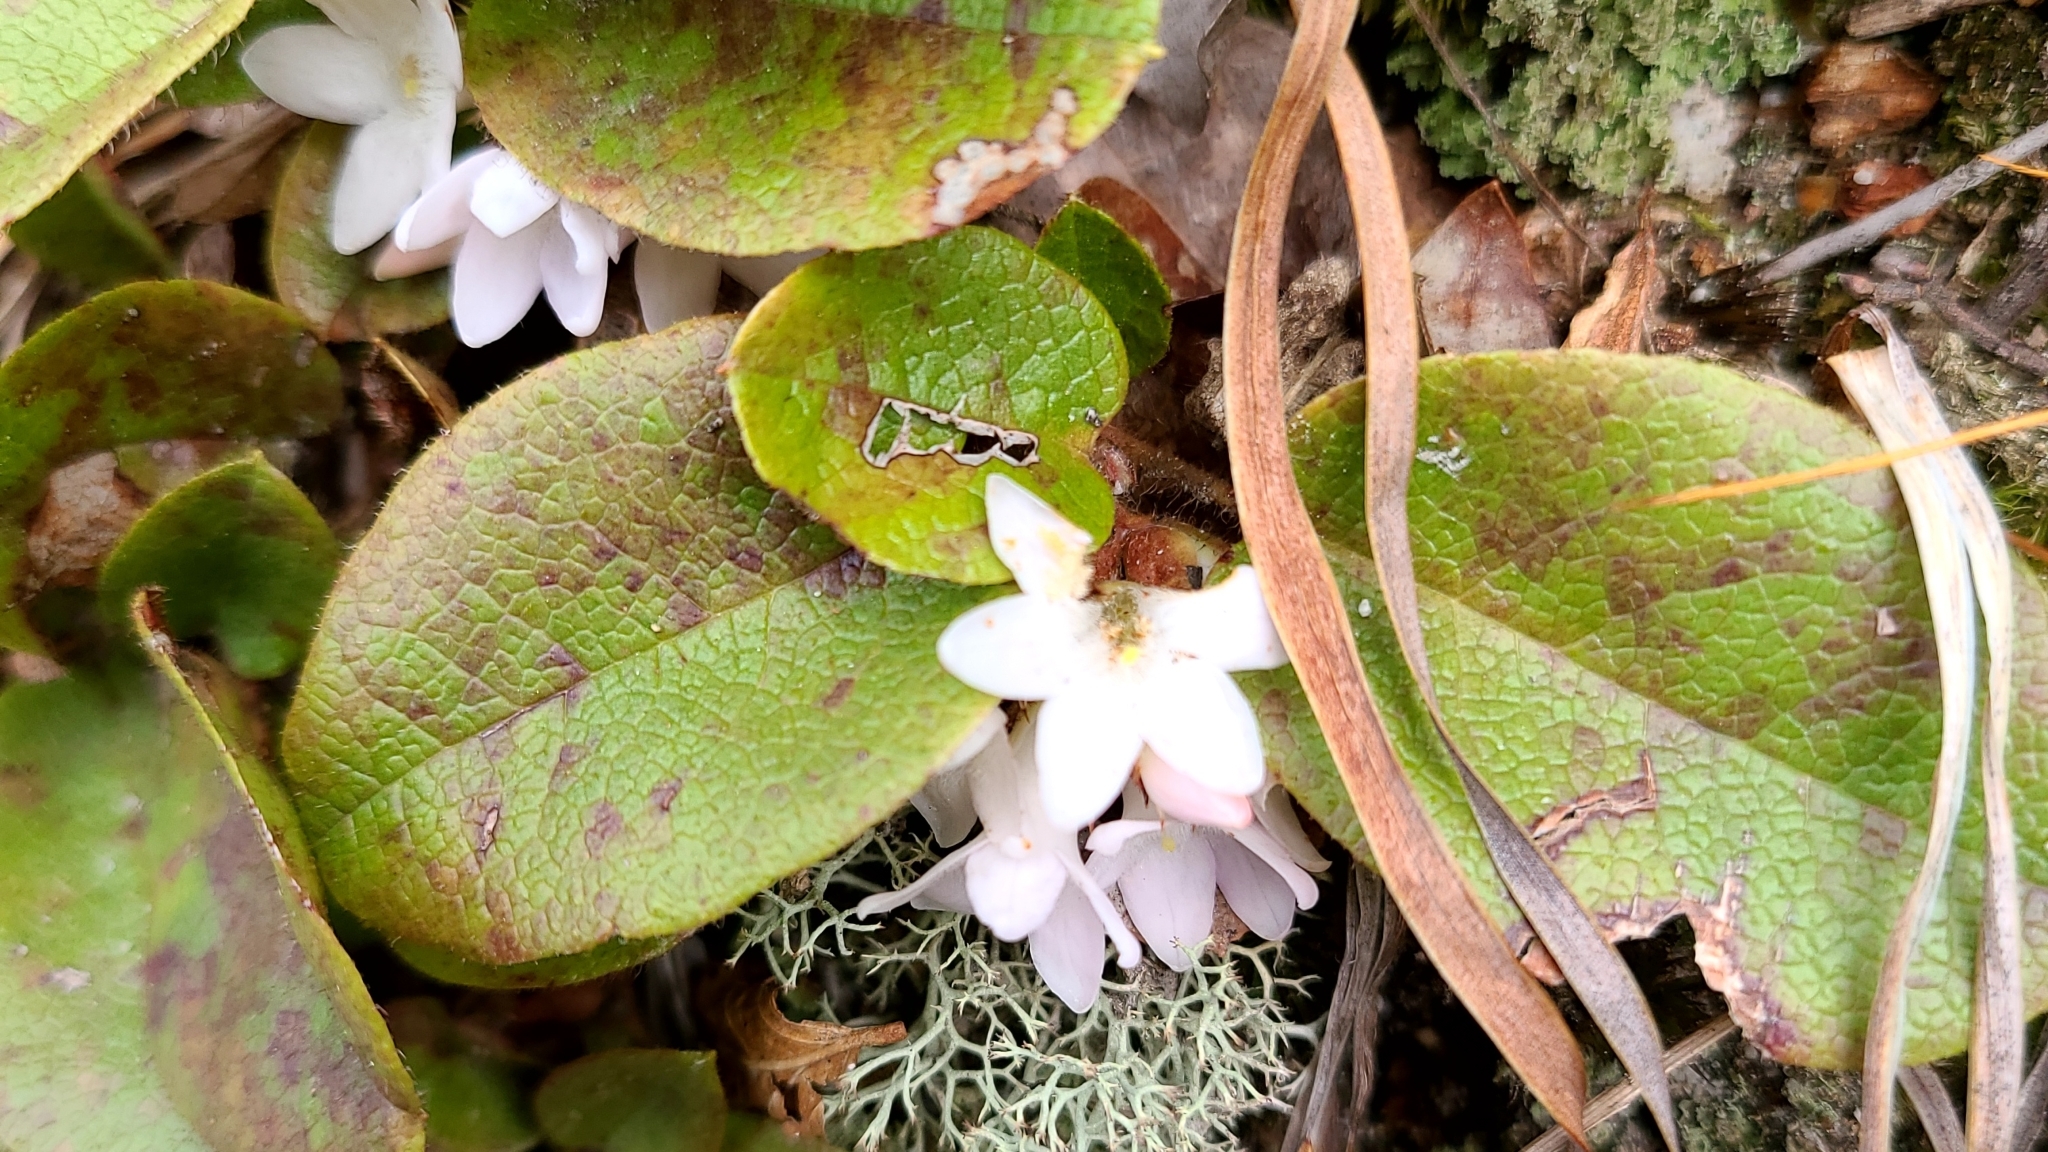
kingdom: Plantae
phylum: Tracheophyta
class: Magnoliopsida
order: Ericales
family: Ericaceae
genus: Epigaea
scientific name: Epigaea repens
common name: Gravelroot
